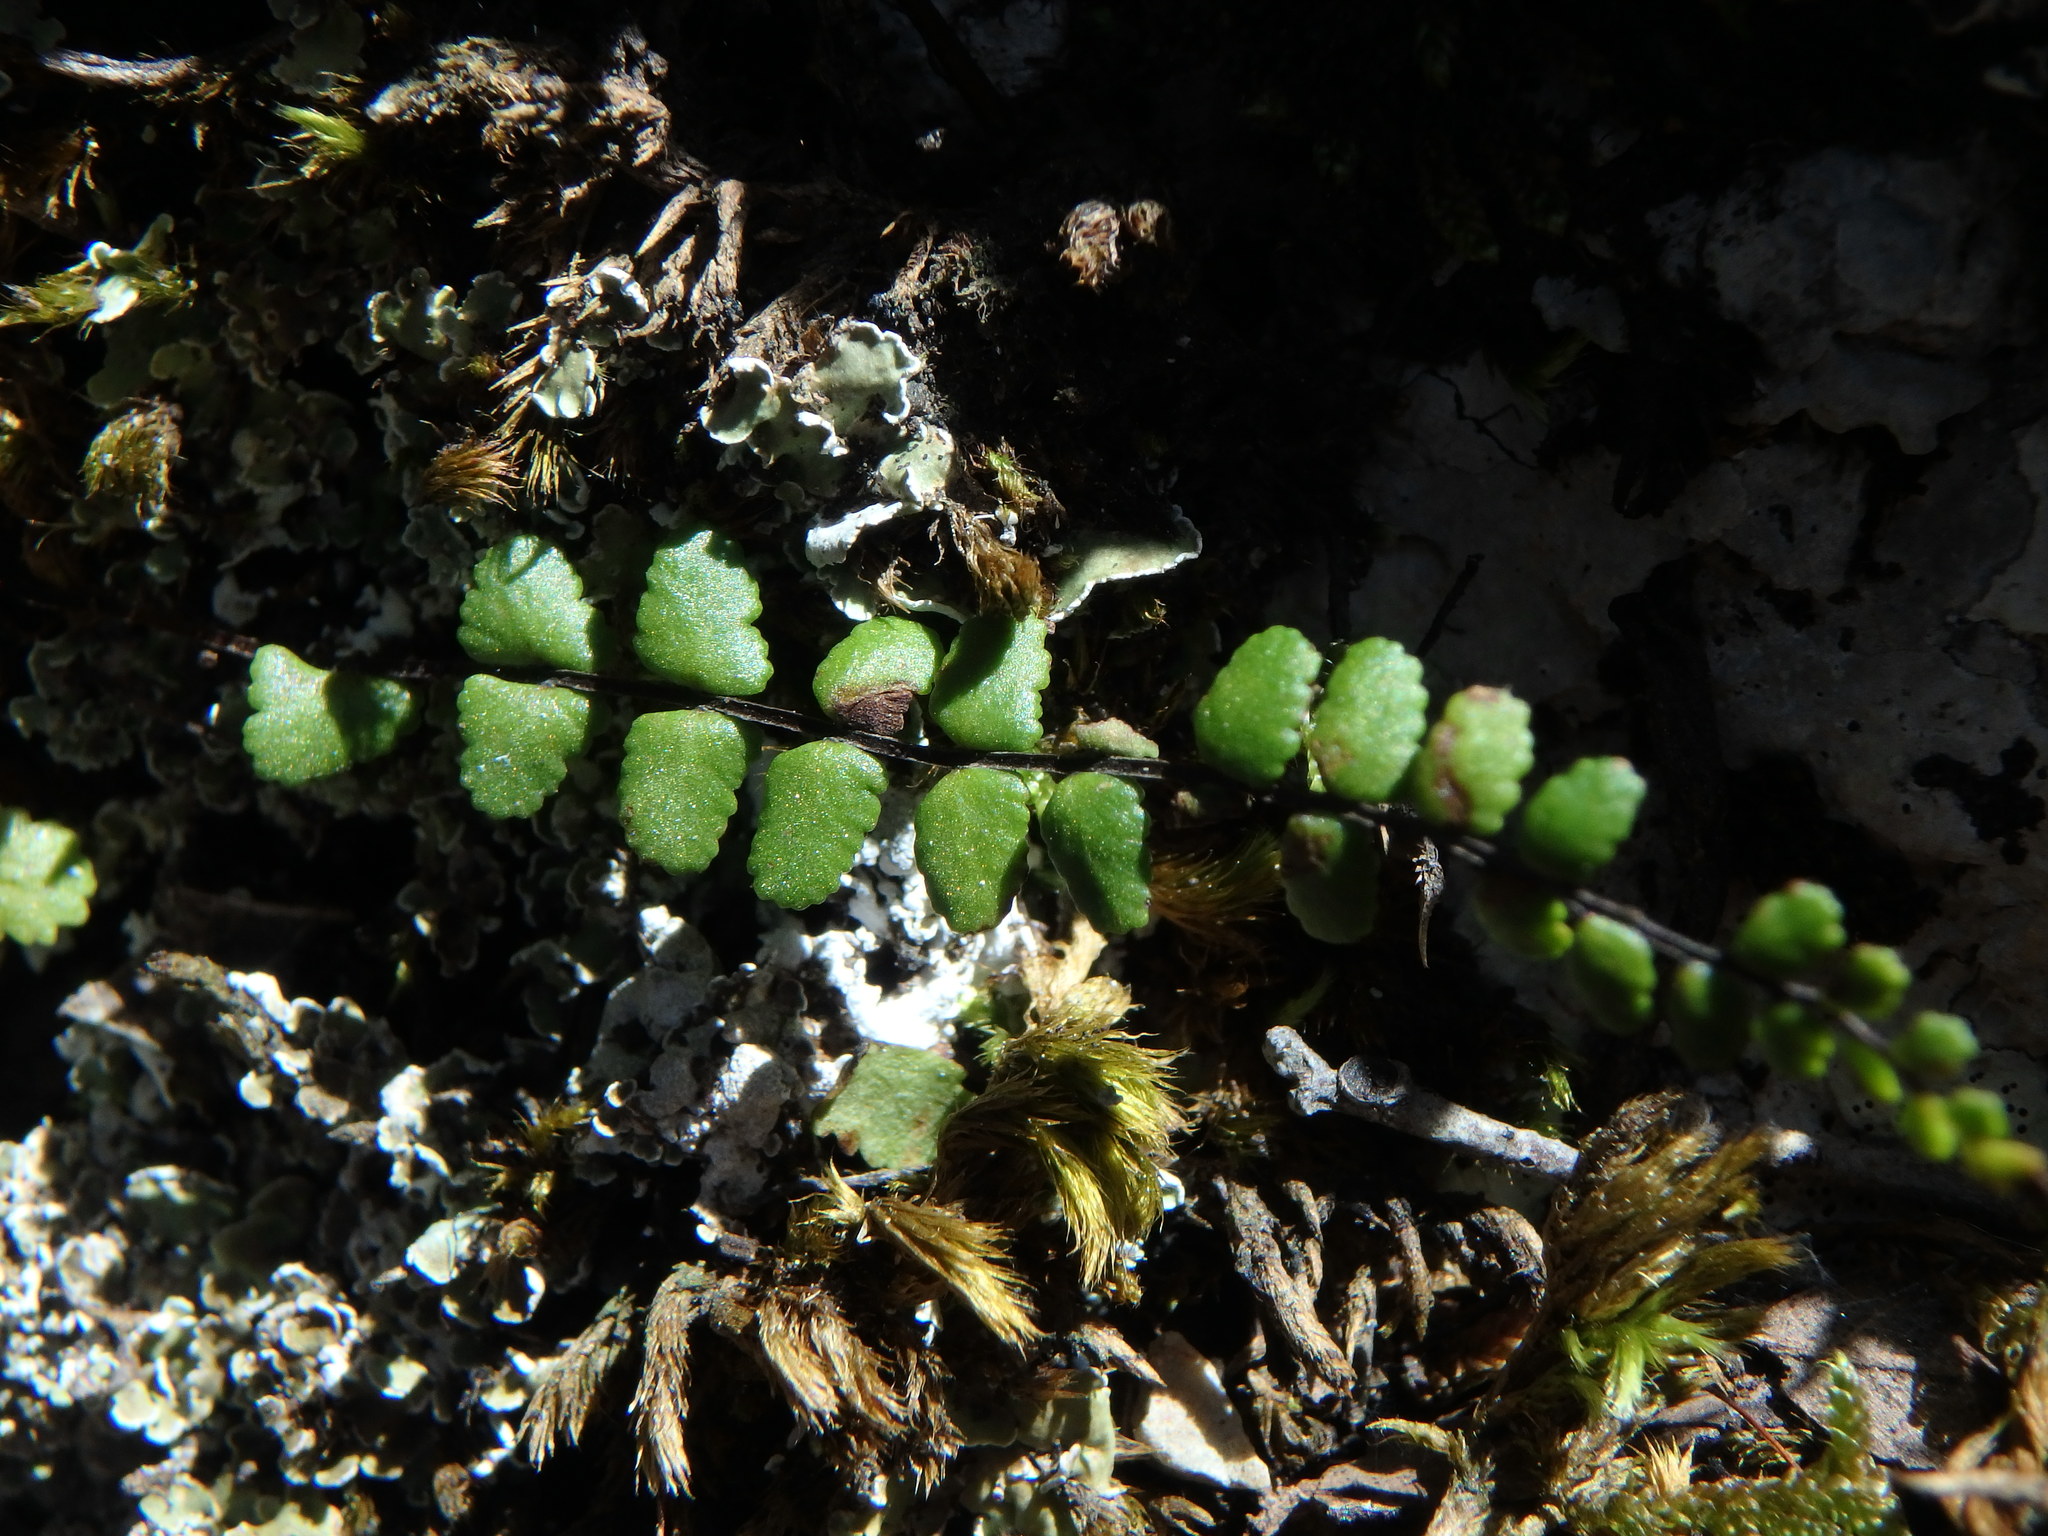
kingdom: Plantae
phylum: Tracheophyta
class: Polypodiopsida
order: Polypodiales
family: Aspleniaceae
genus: Asplenium
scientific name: Asplenium trichomanes
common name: Maidenhair spleenwort
